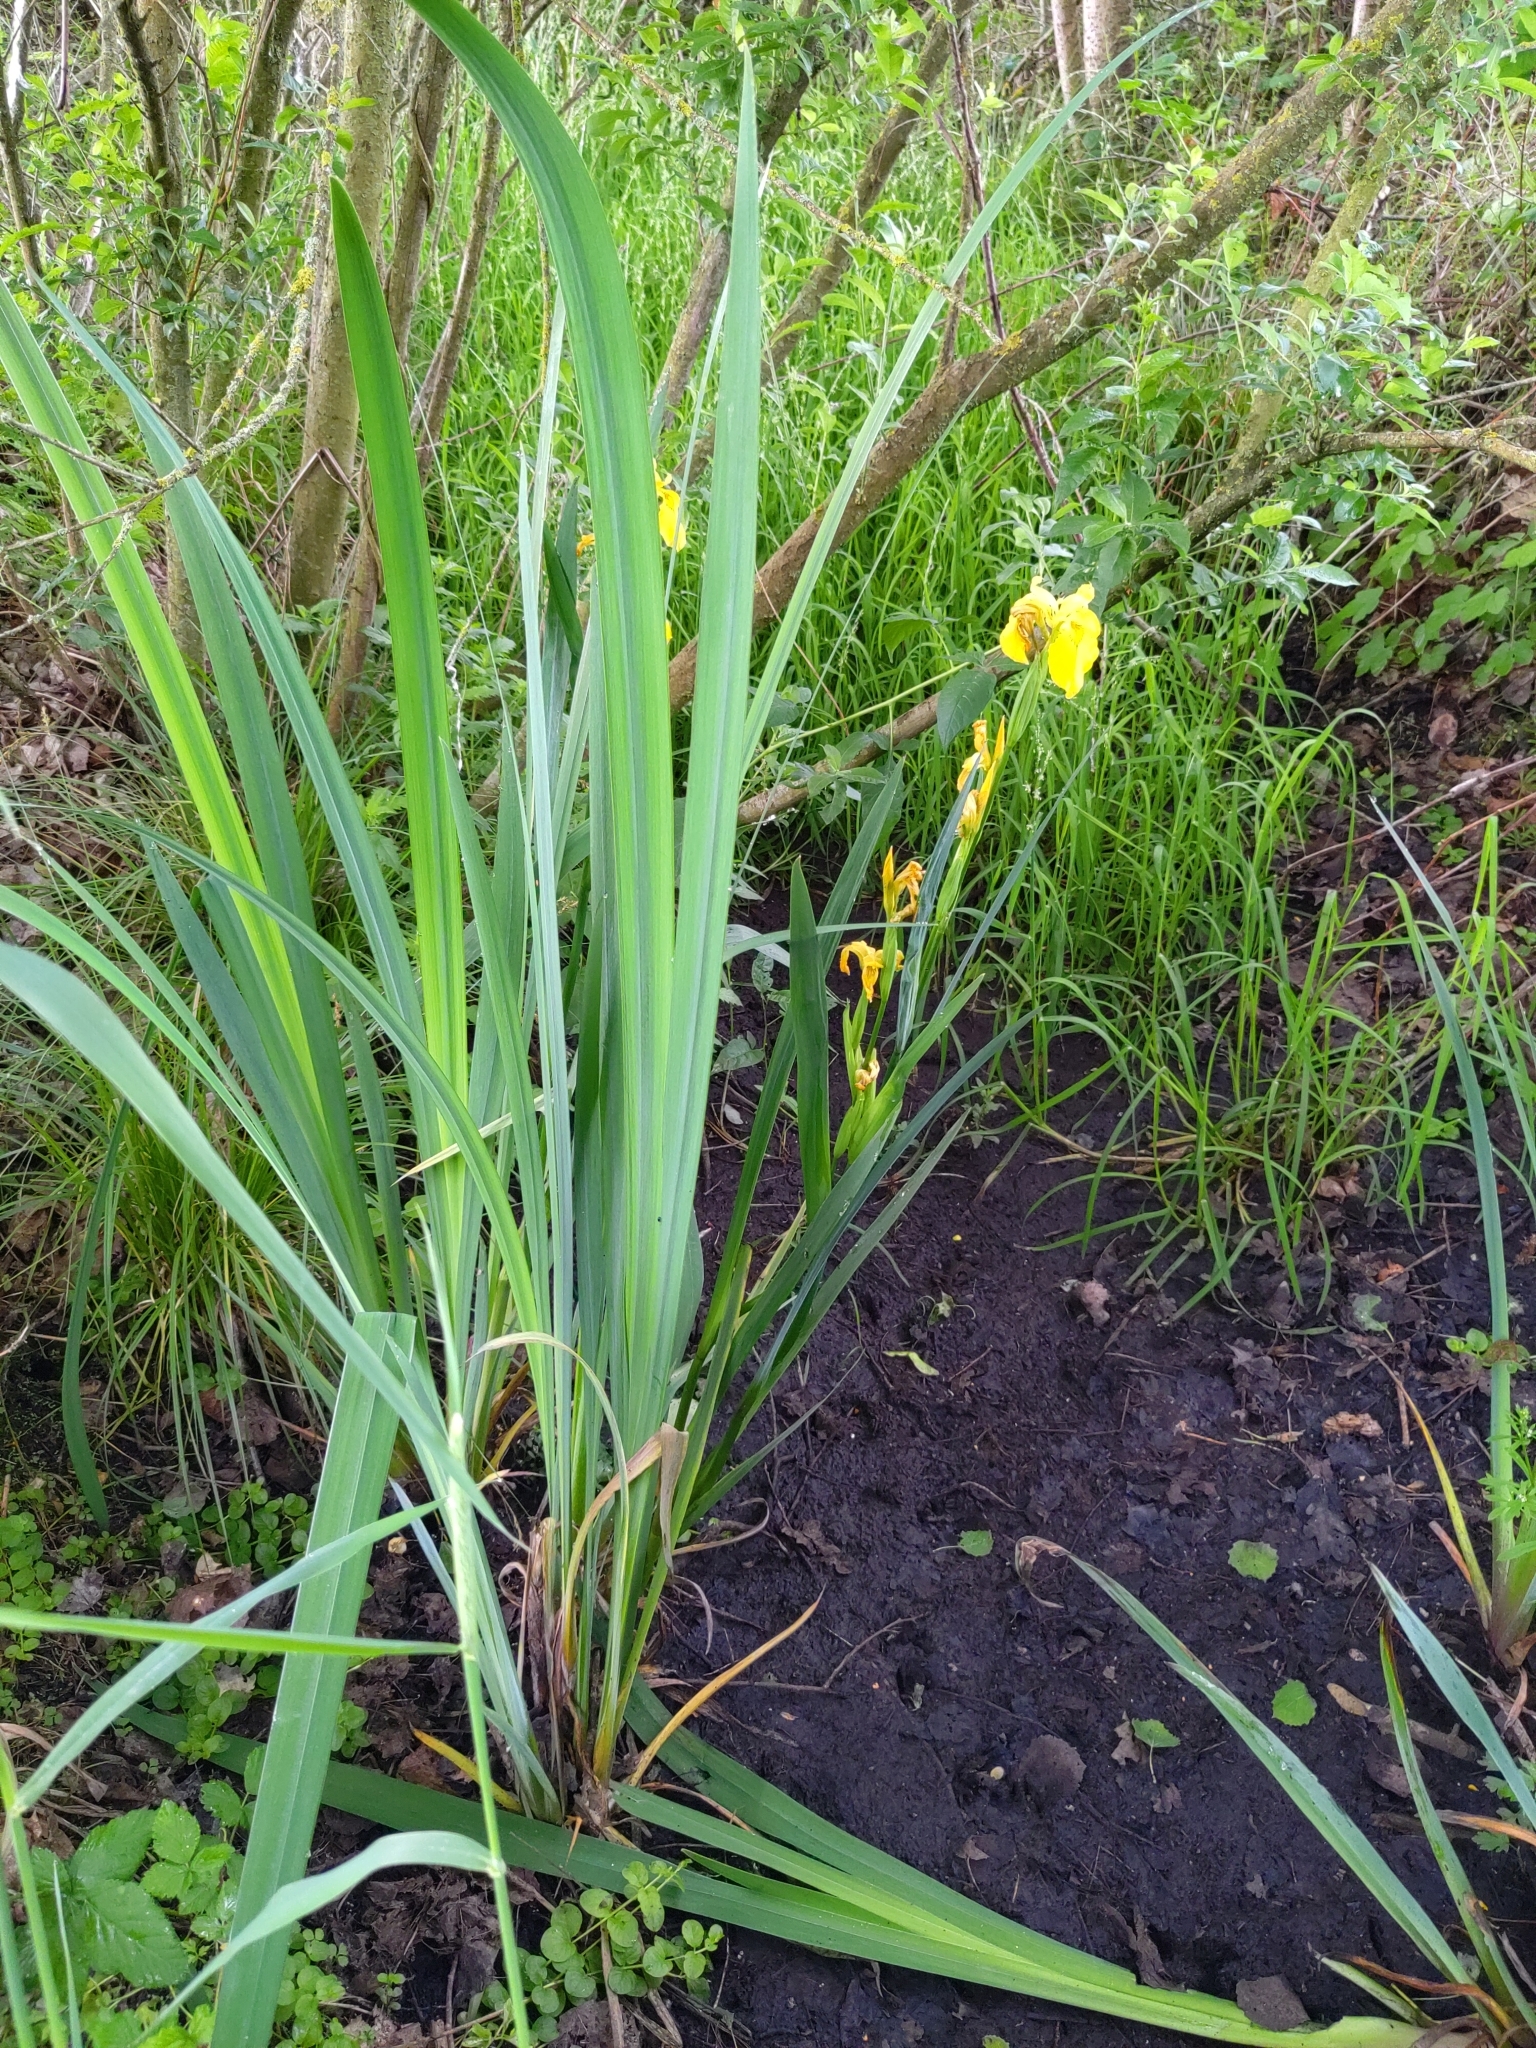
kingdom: Plantae
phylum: Tracheophyta
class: Liliopsida
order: Asparagales
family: Iridaceae
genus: Iris
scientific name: Iris pseudacorus
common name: Yellow flag
